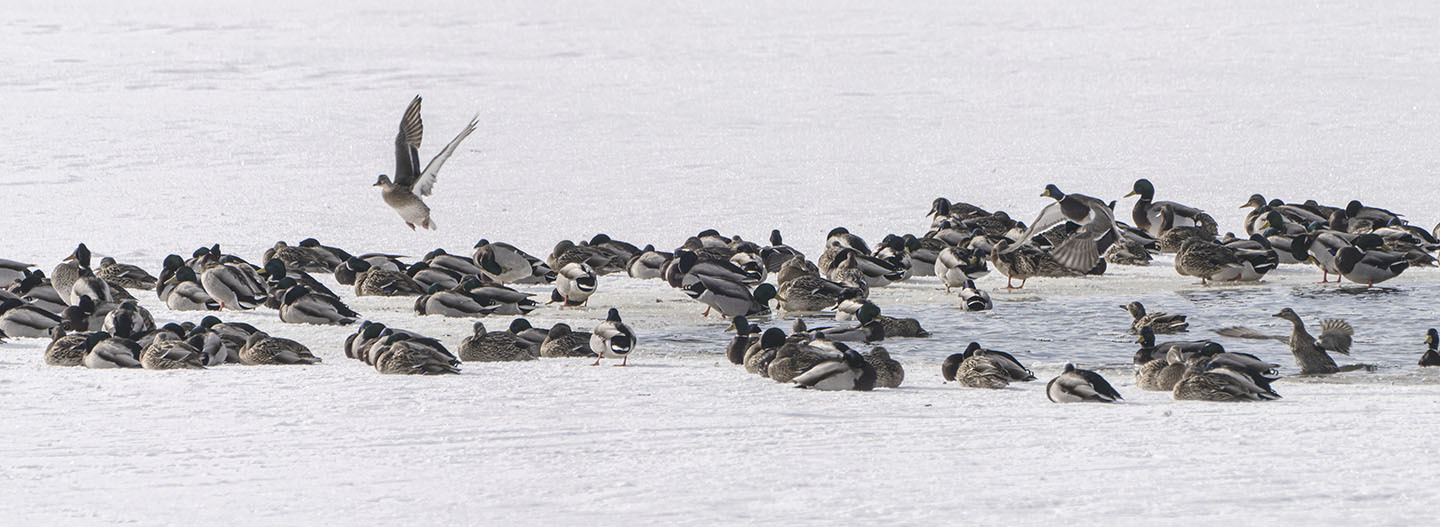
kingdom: Animalia
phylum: Chordata
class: Aves
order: Anseriformes
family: Anatidae
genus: Anas
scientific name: Anas platyrhynchos
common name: Mallard
